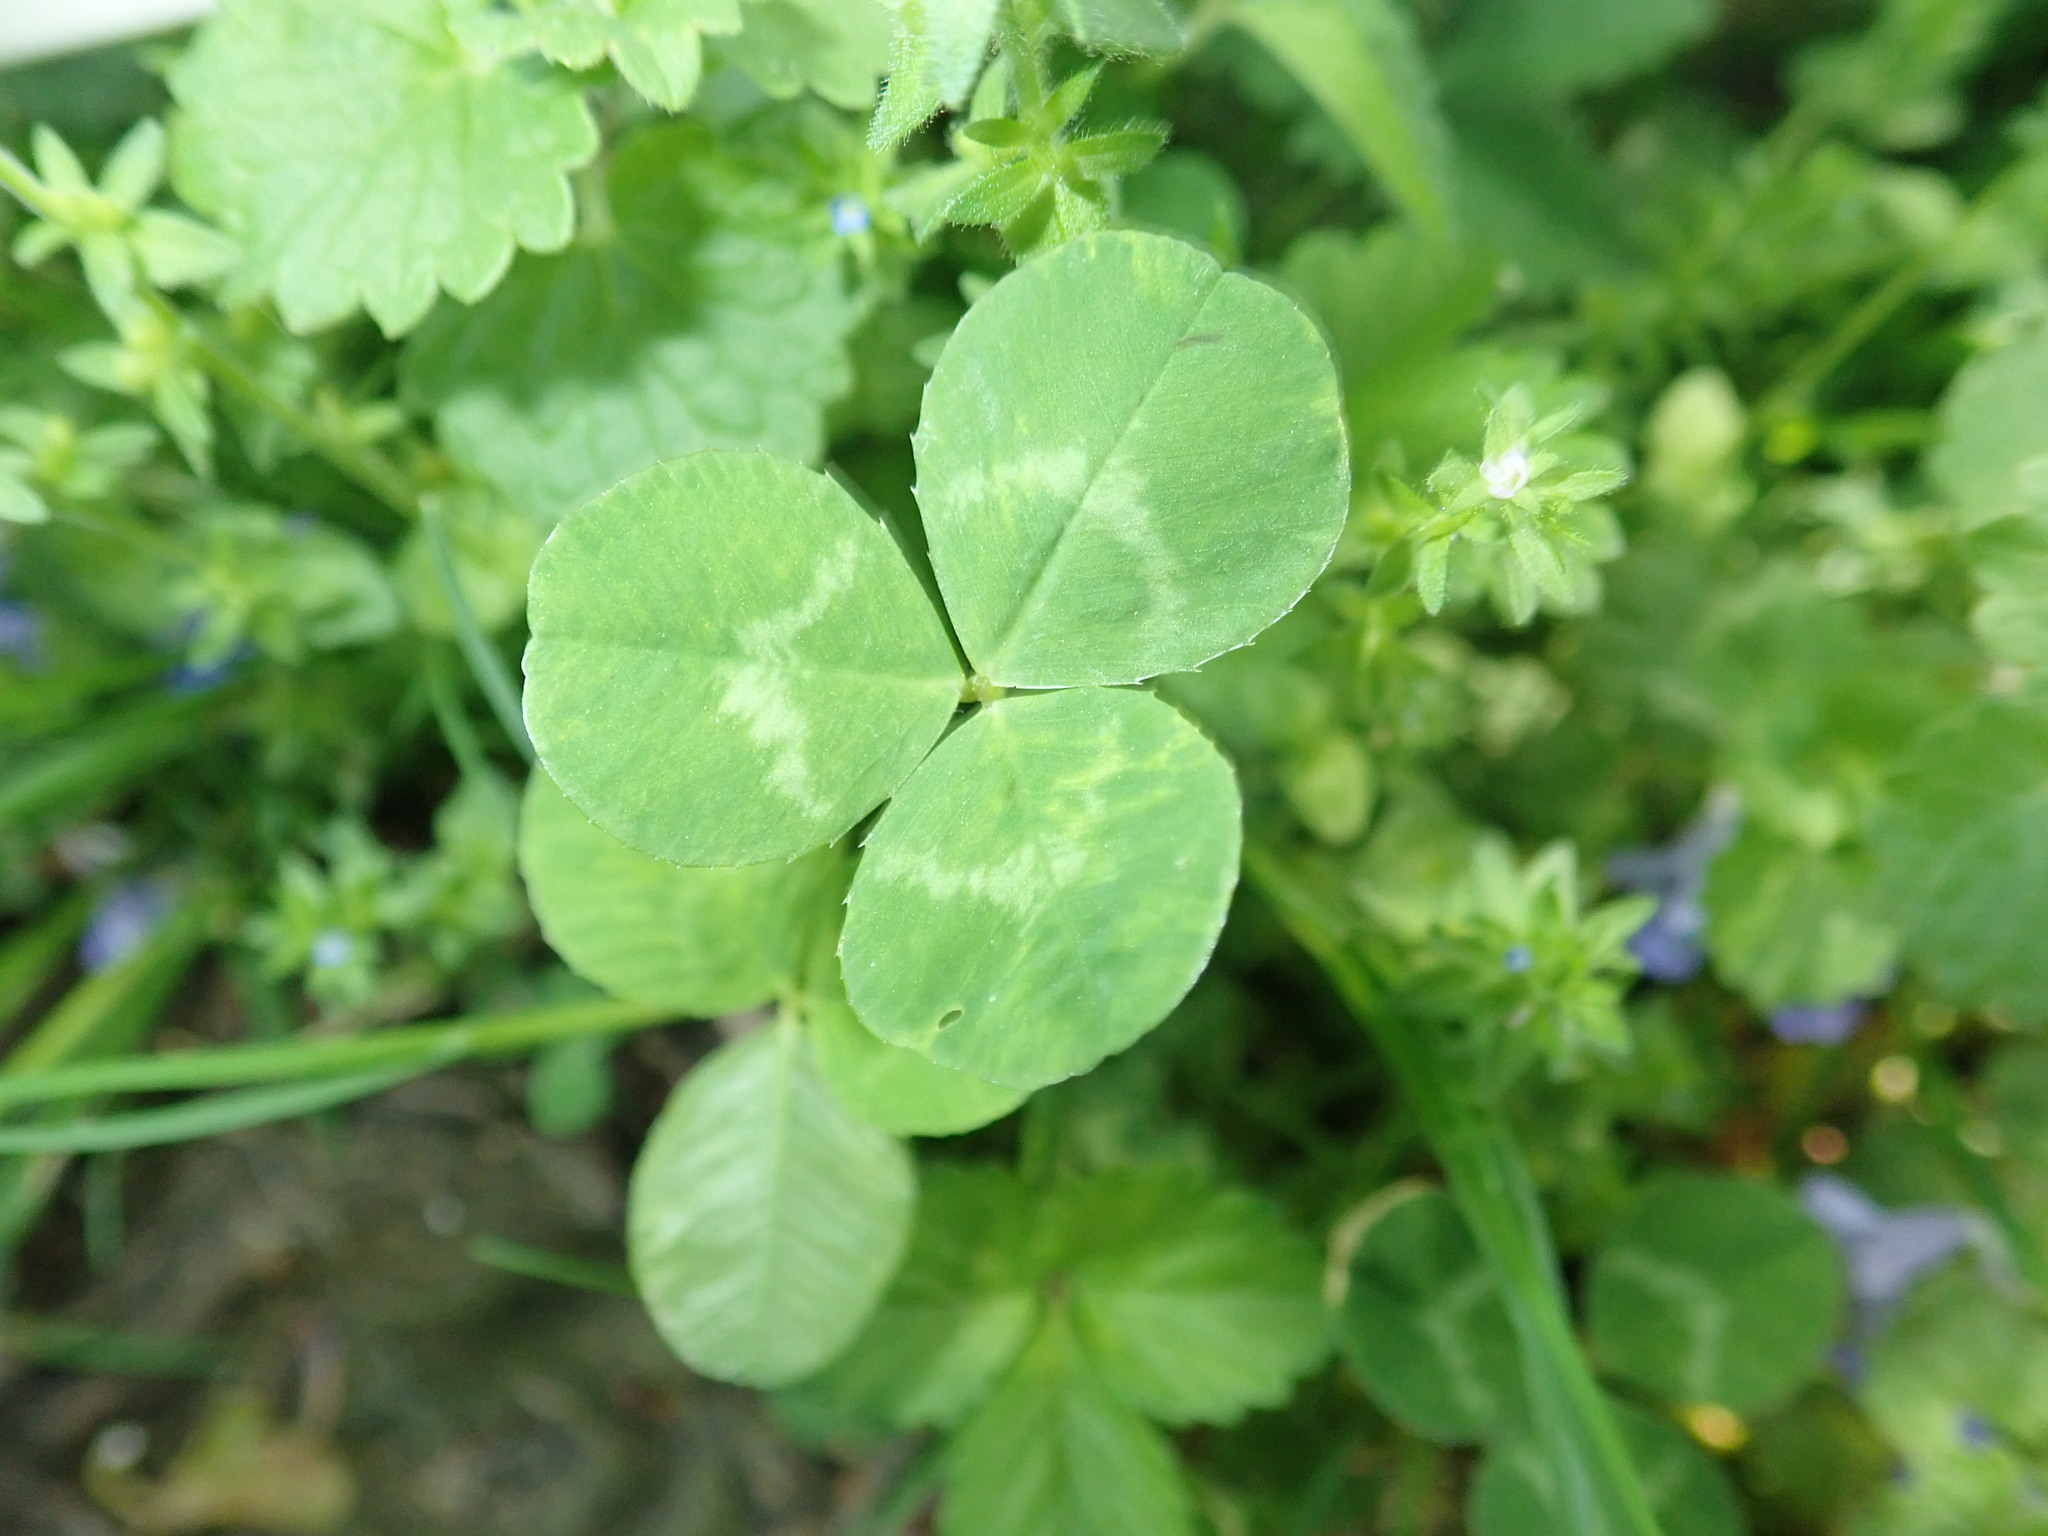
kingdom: Plantae
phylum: Tracheophyta
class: Magnoliopsida
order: Fabales
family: Fabaceae
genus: Trifolium
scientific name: Trifolium repens
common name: White clover
